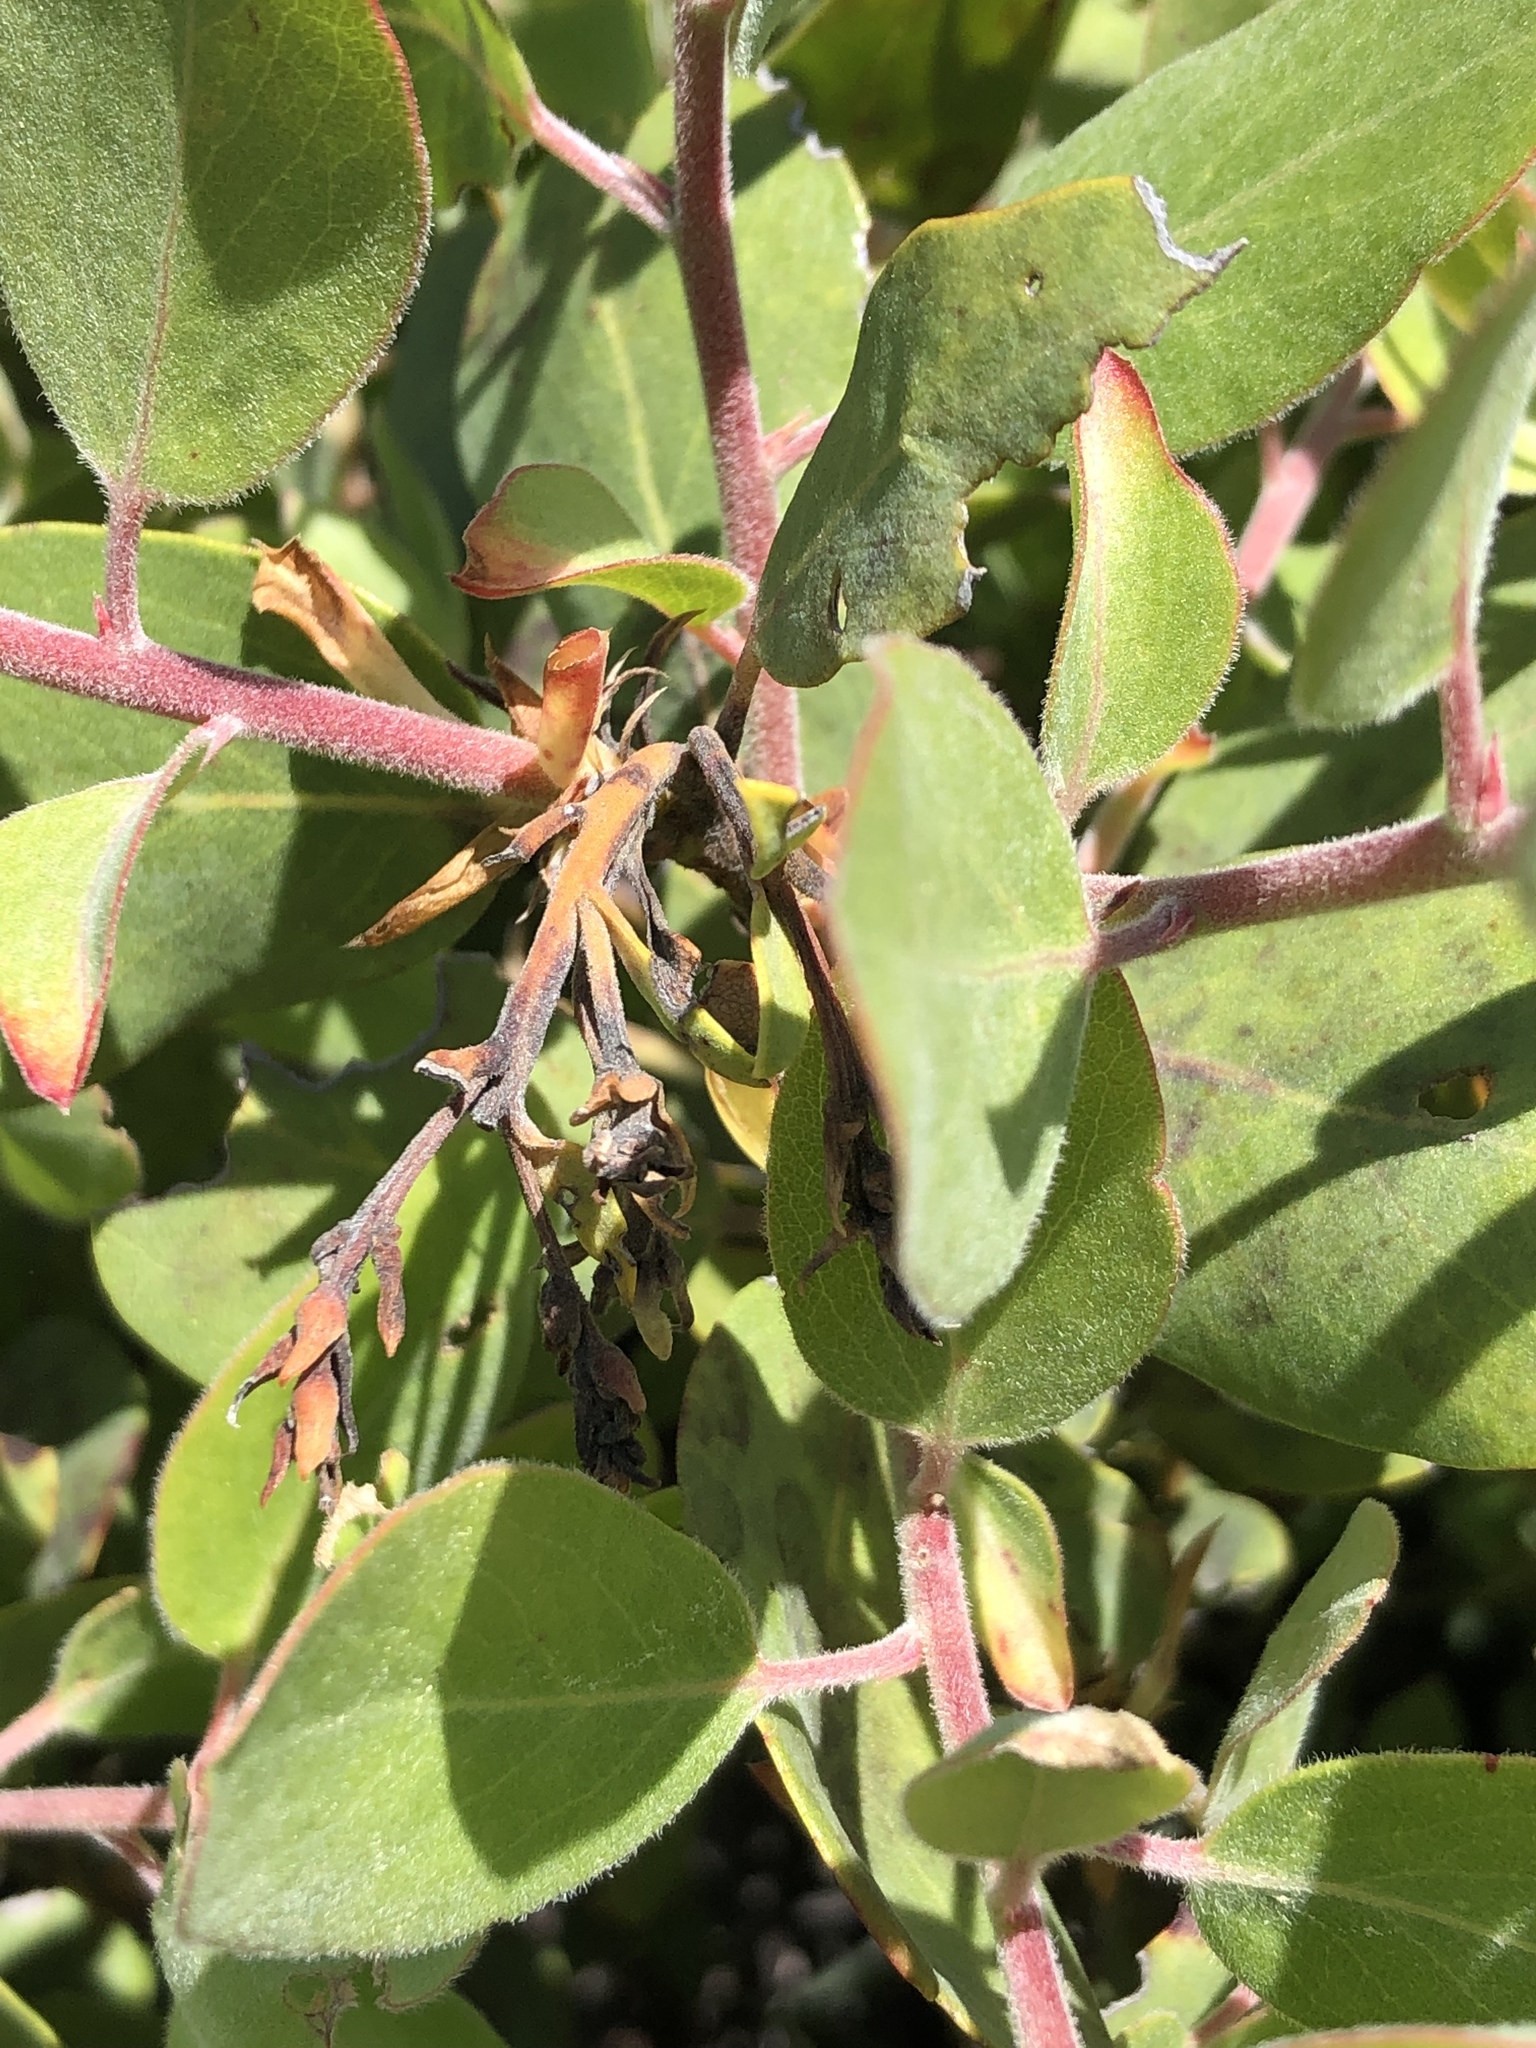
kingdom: Plantae
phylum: Tracheophyta
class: Magnoliopsida
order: Ericales
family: Ericaceae
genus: Arctostaphylos
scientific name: Arctostaphylos glandulosa
